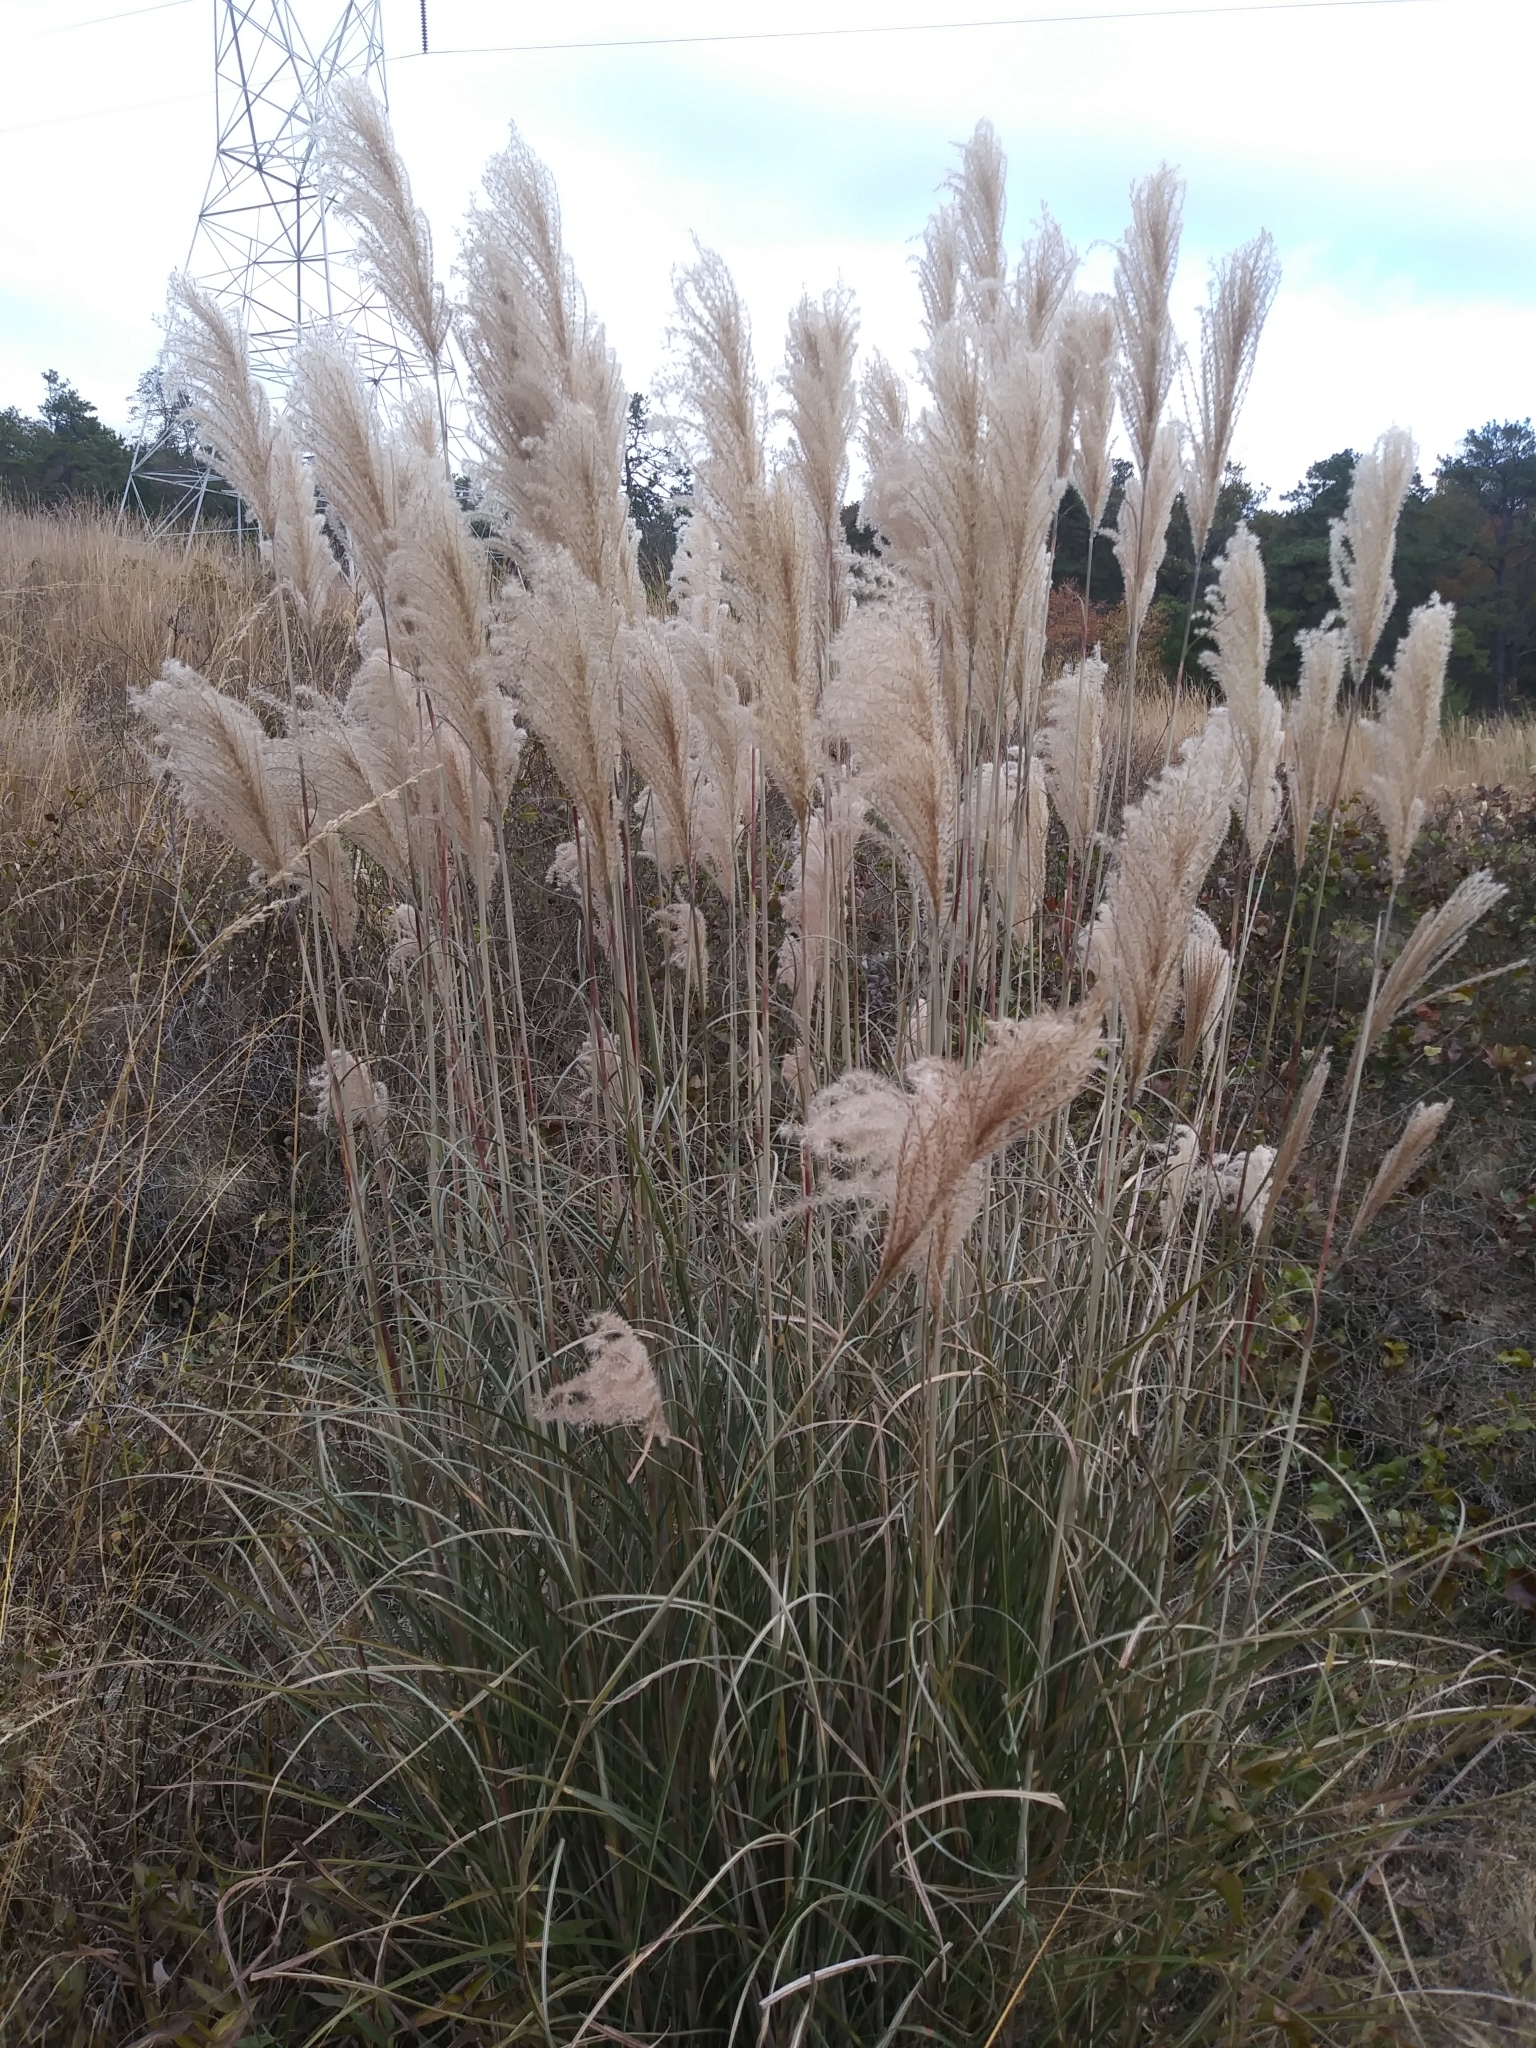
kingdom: Plantae
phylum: Tracheophyta
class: Liliopsida
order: Poales
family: Poaceae
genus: Miscanthus
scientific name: Miscanthus sinensis
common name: Chinese silvergrass
